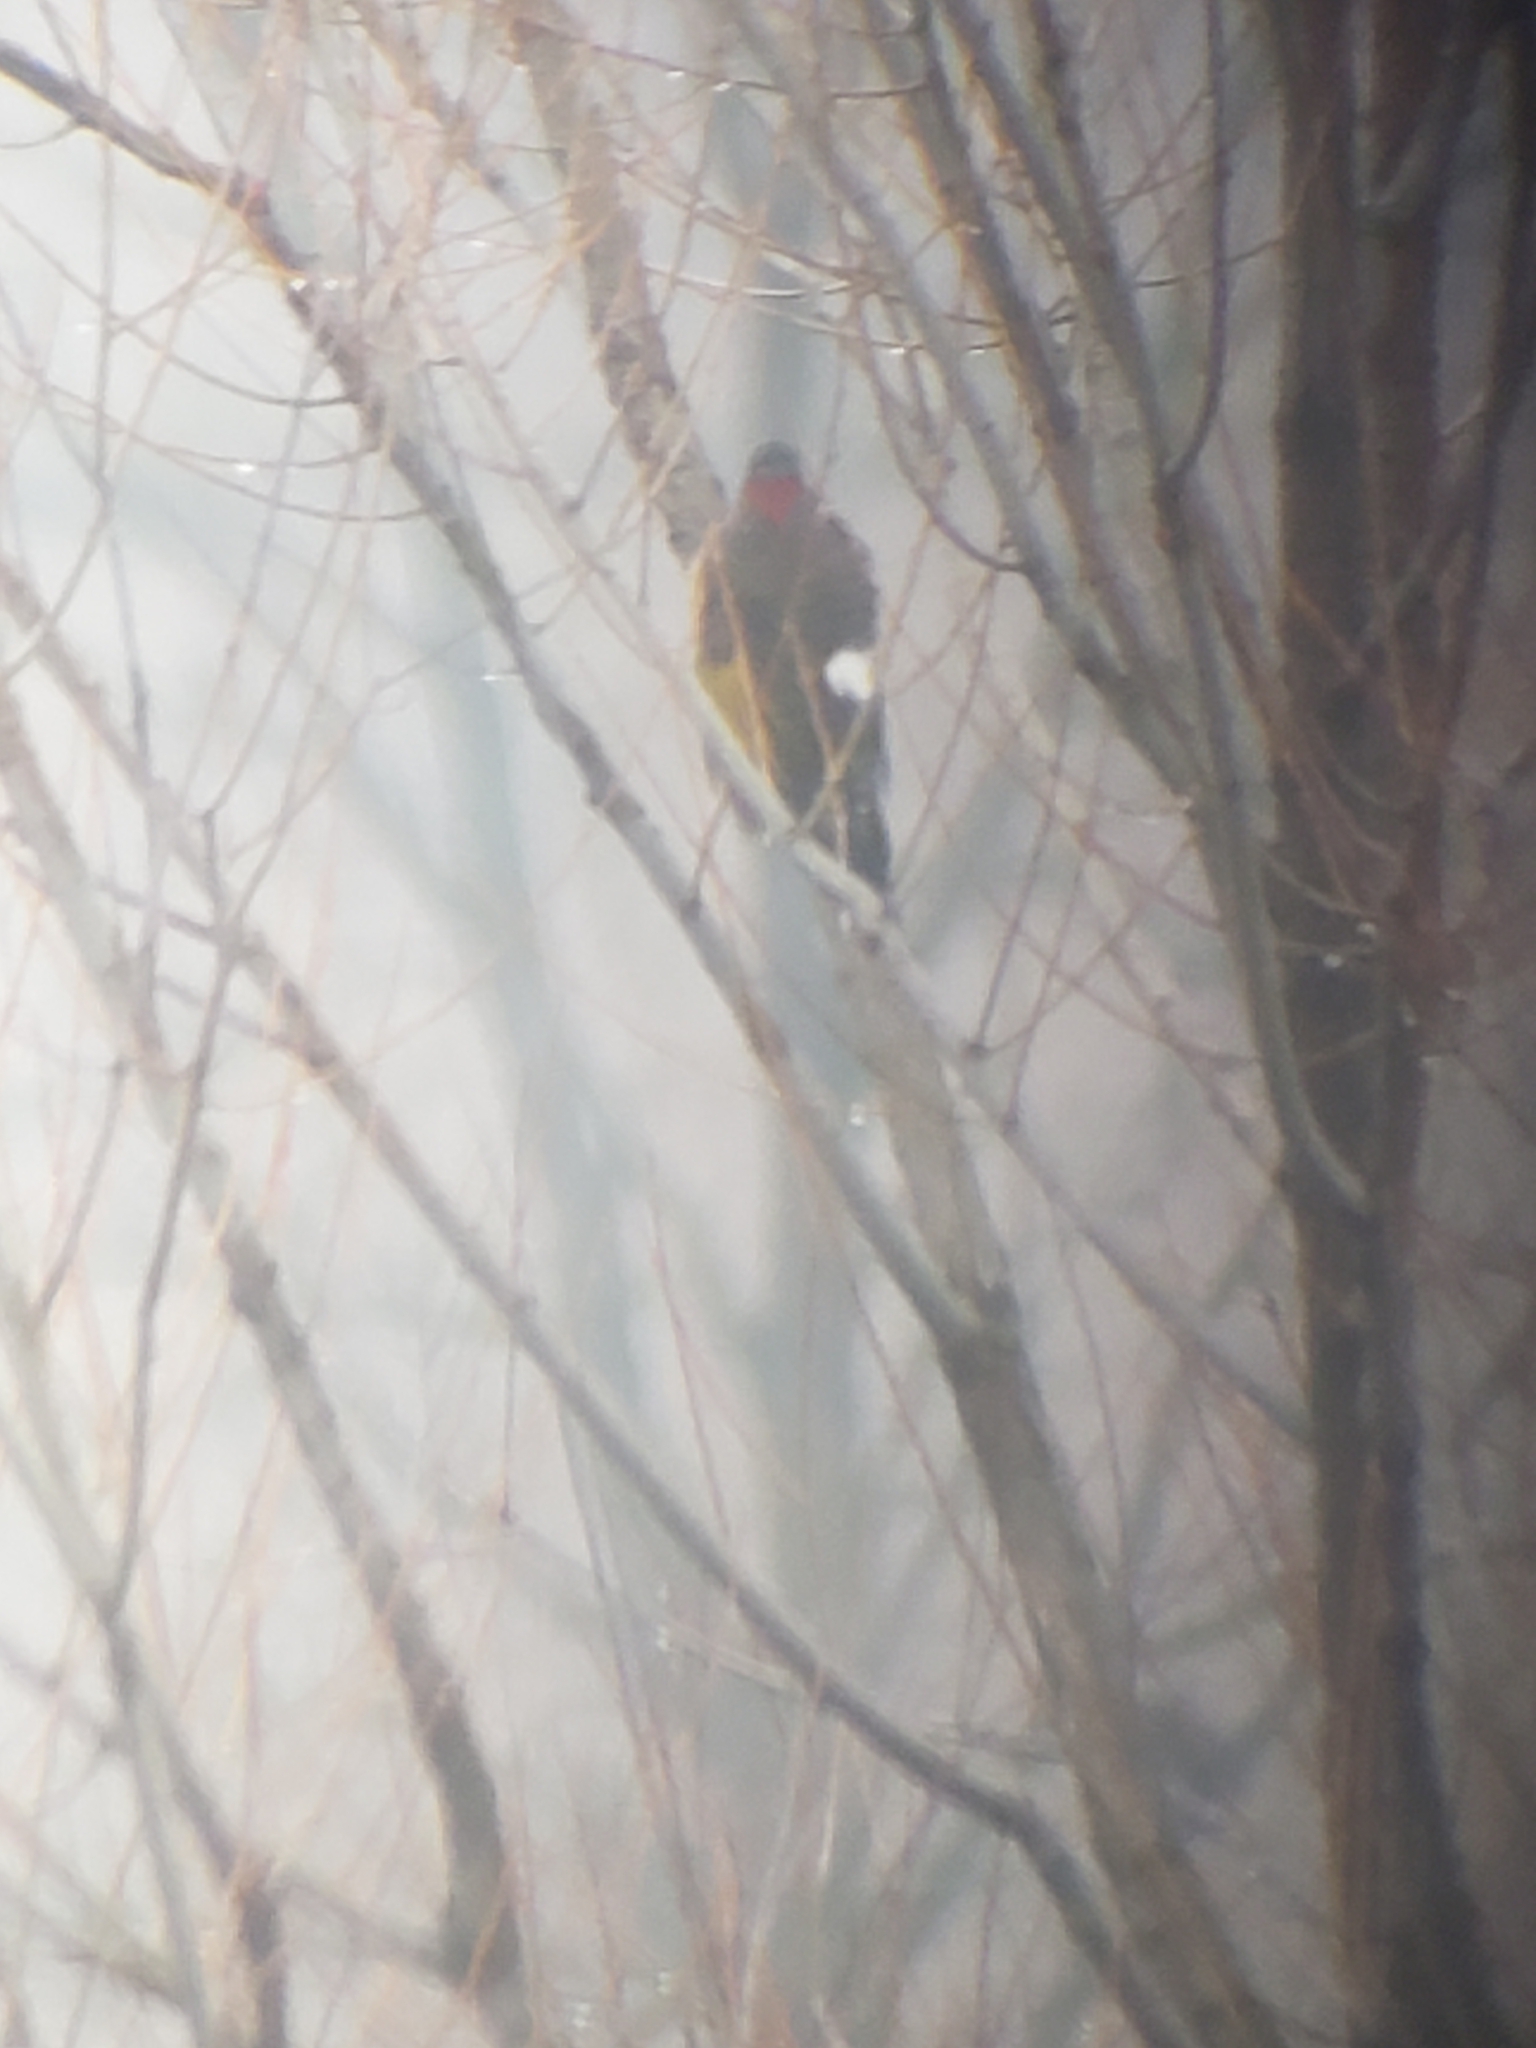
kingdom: Animalia
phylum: Chordata
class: Aves
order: Piciformes
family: Picidae
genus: Colaptes
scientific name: Colaptes auratus
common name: Northern flicker
